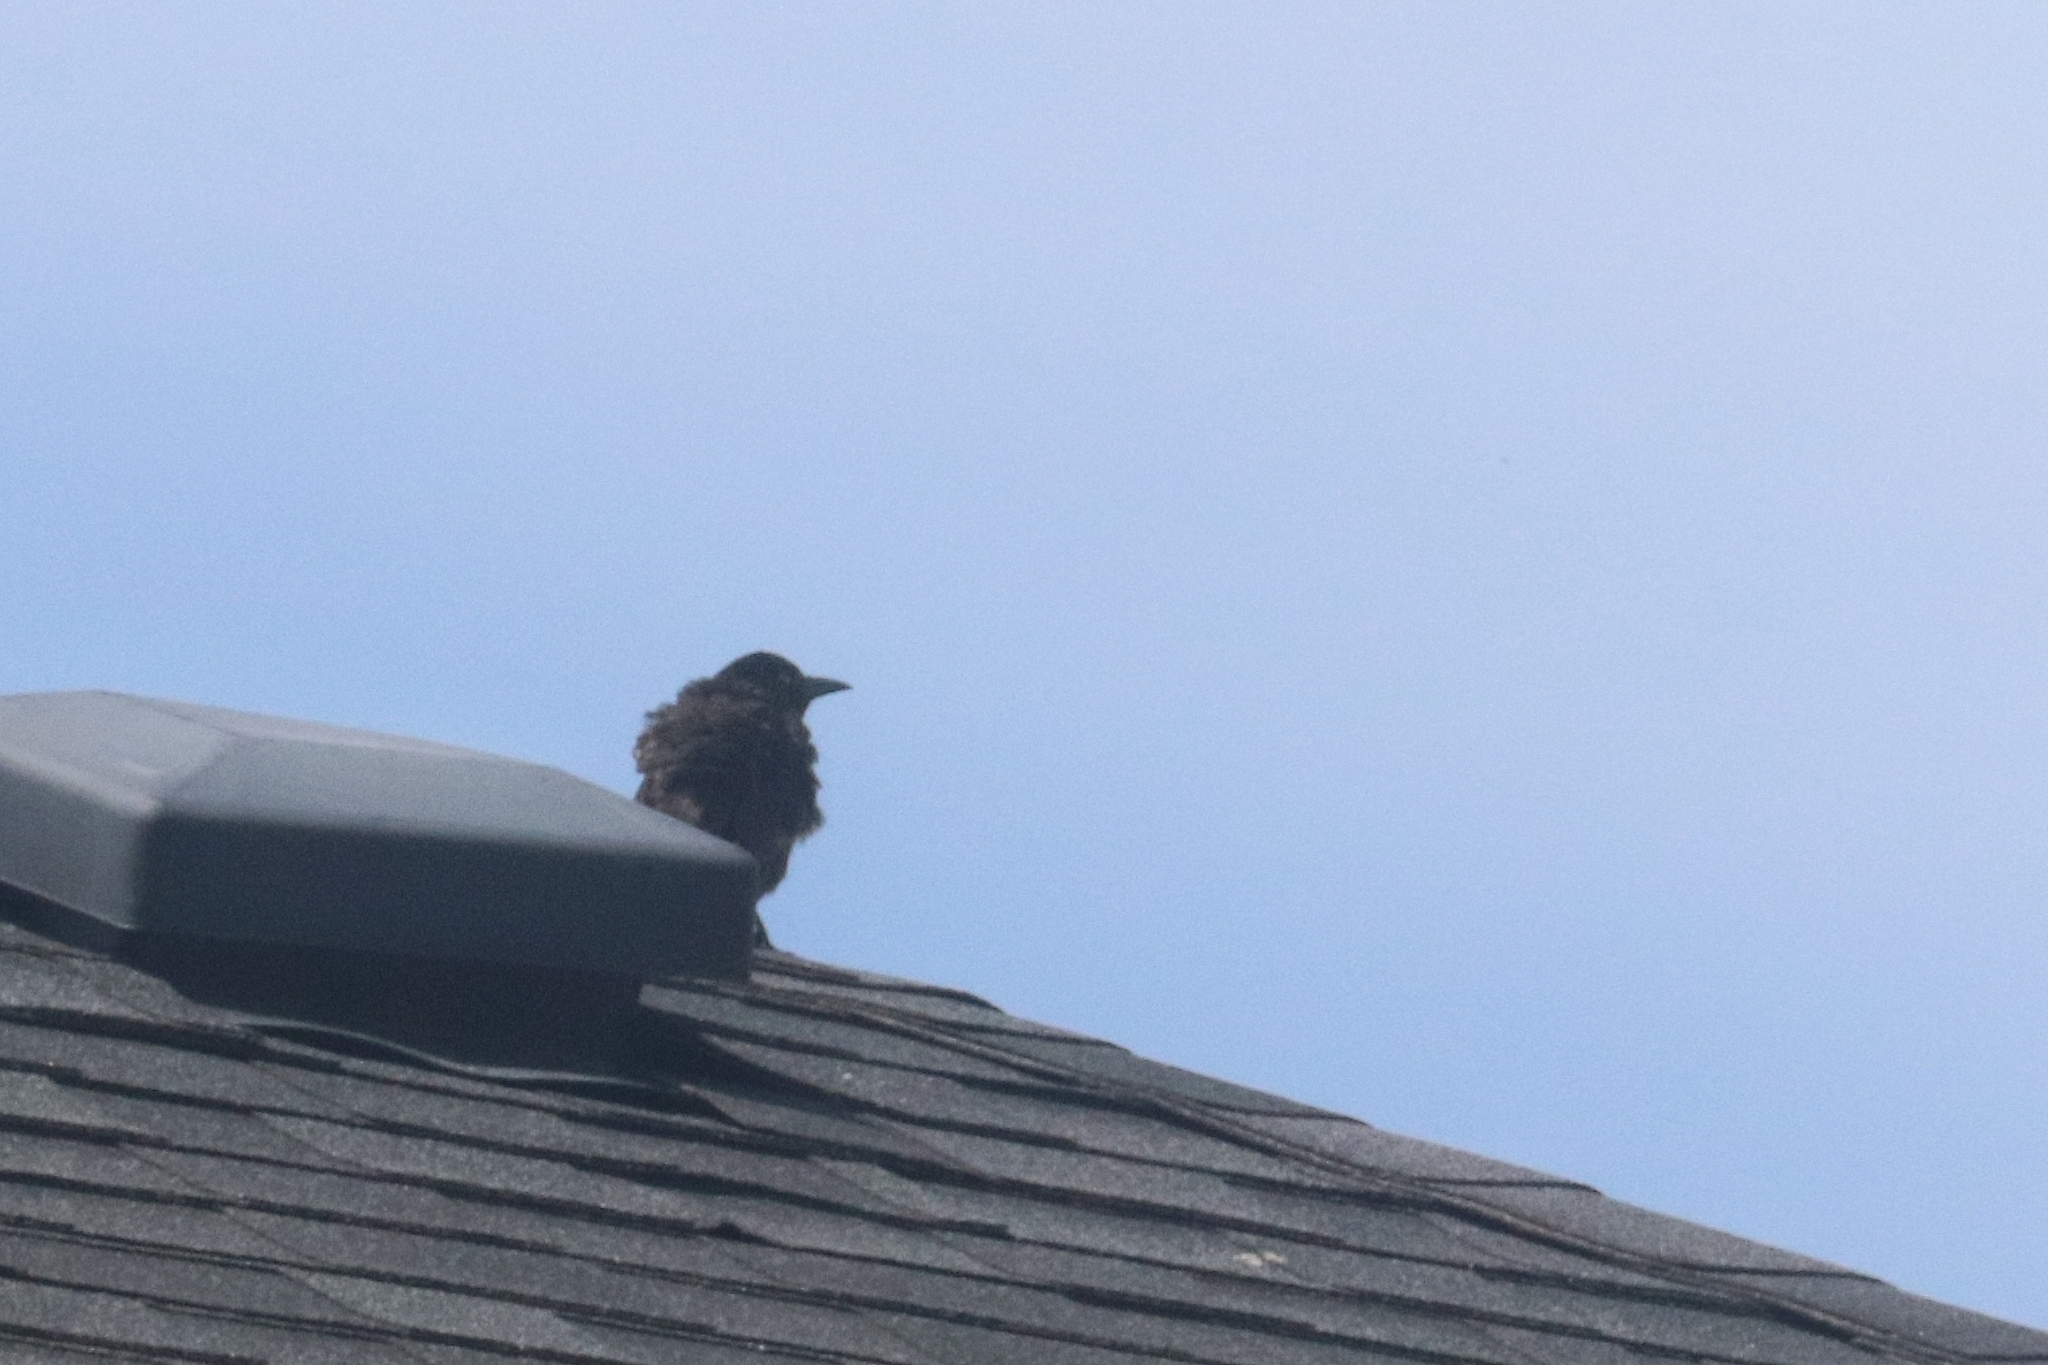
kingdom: Animalia
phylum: Chordata
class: Aves
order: Passeriformes
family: Icteridae
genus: Quiscalus
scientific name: Quiscalus quiscula
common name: Common grackle
